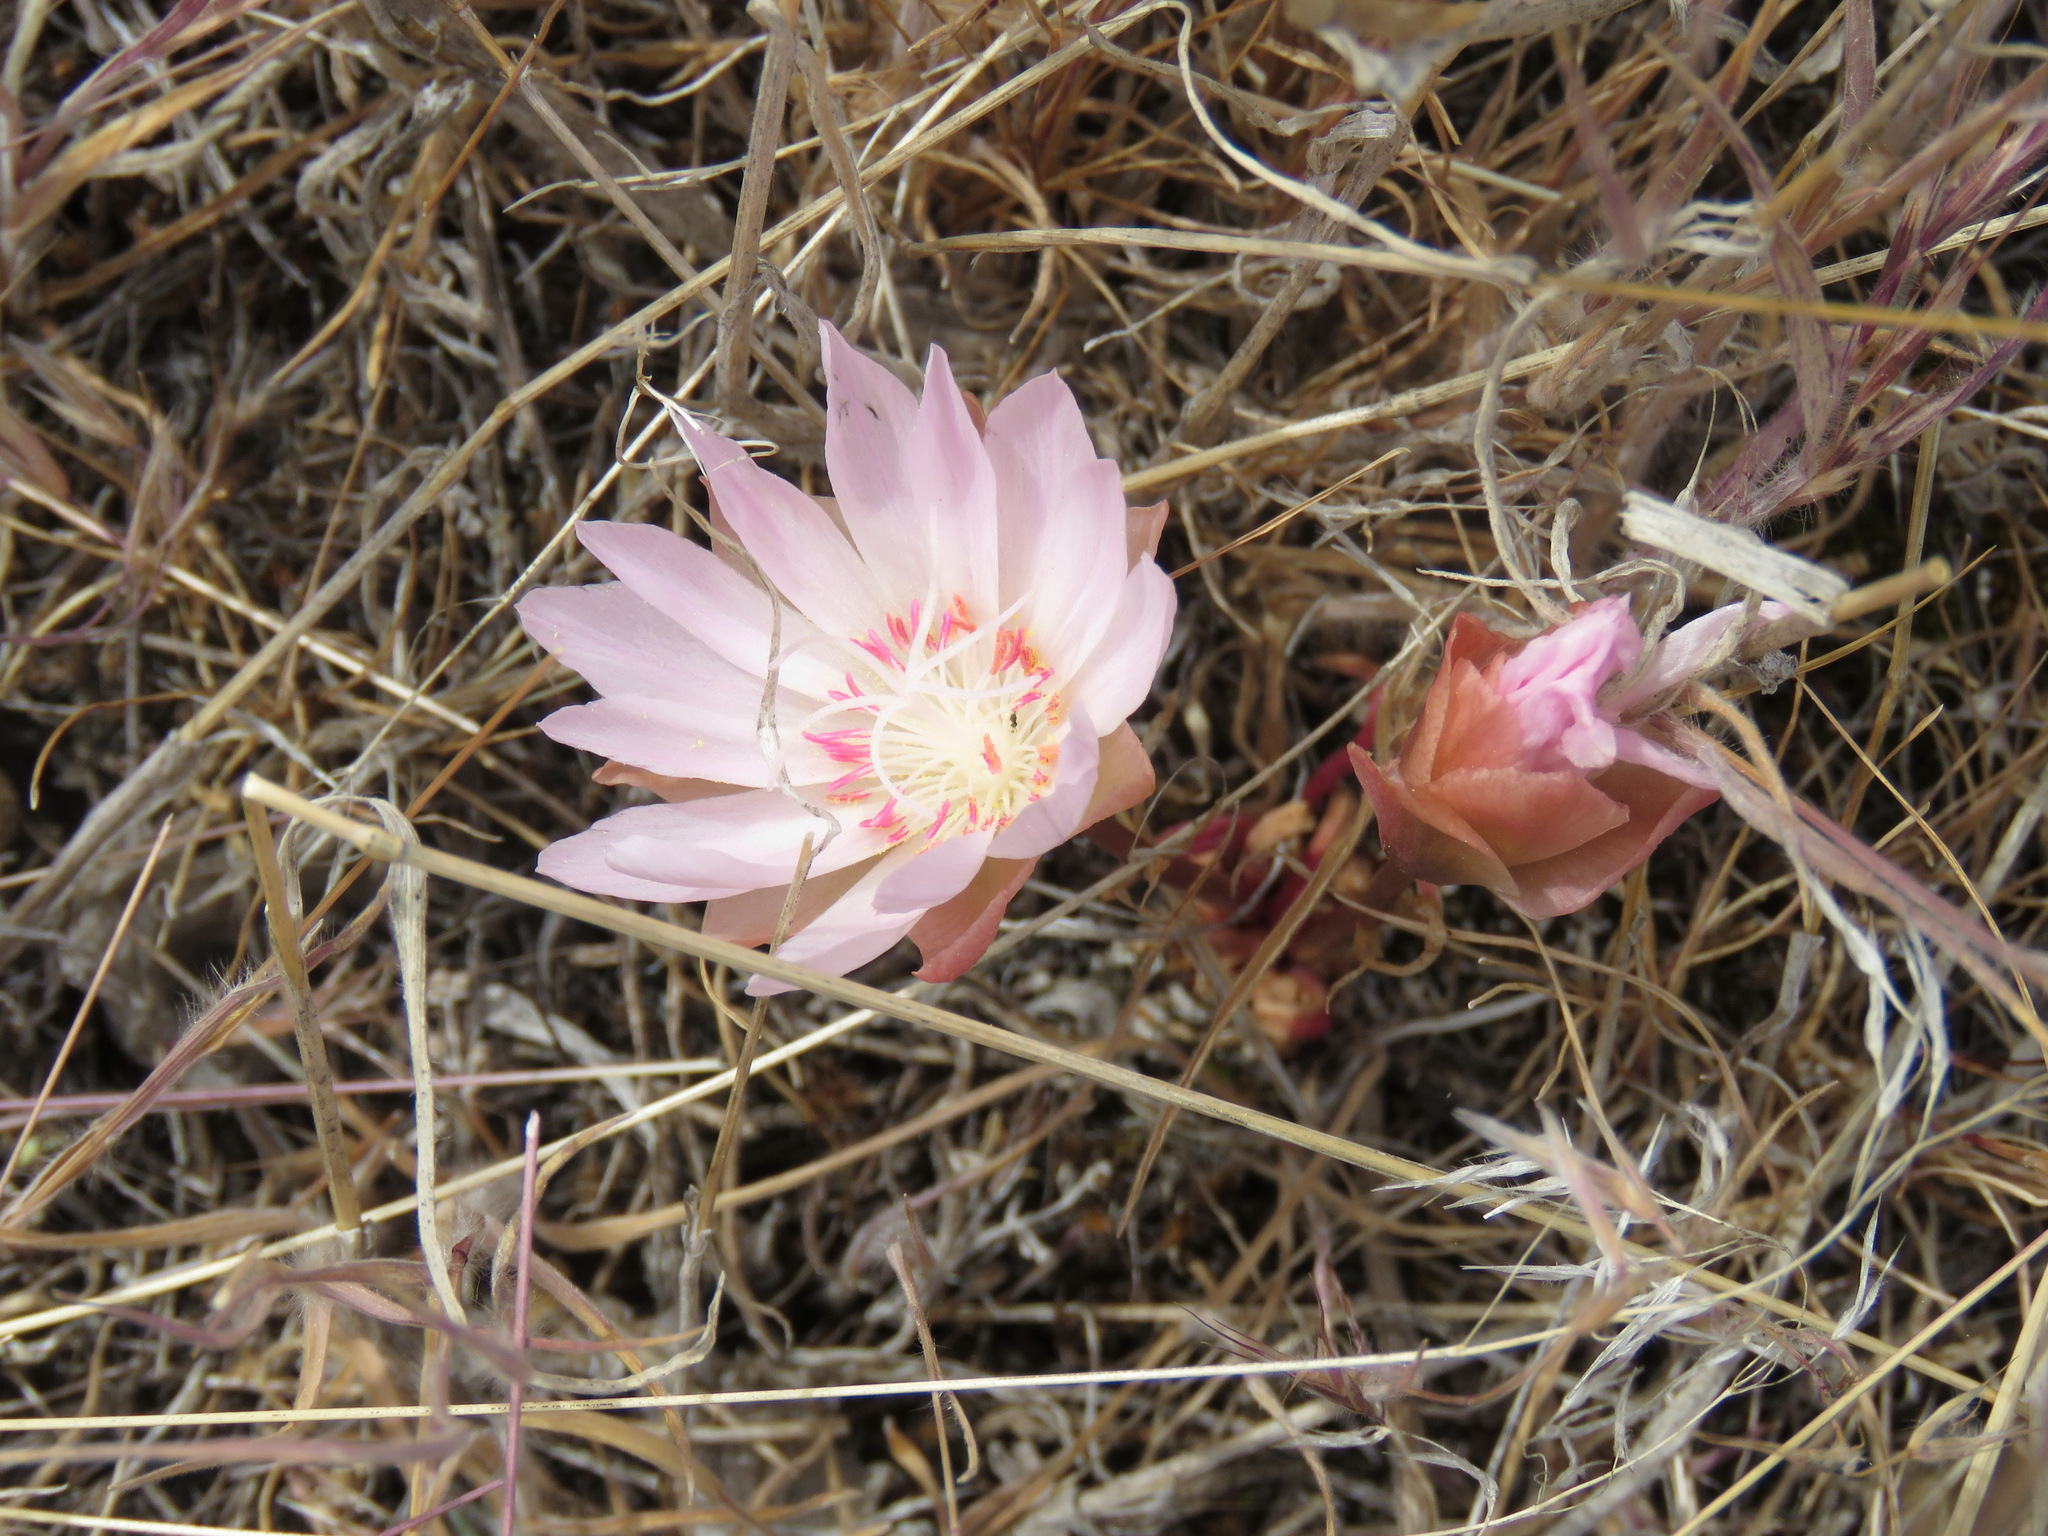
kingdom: Plantae
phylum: Tracheophyta
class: Magnoliopsida
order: Caryophyllales
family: Montiaceae
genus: Lewisia
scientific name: Lewisia rediviva
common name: Bitter-root
